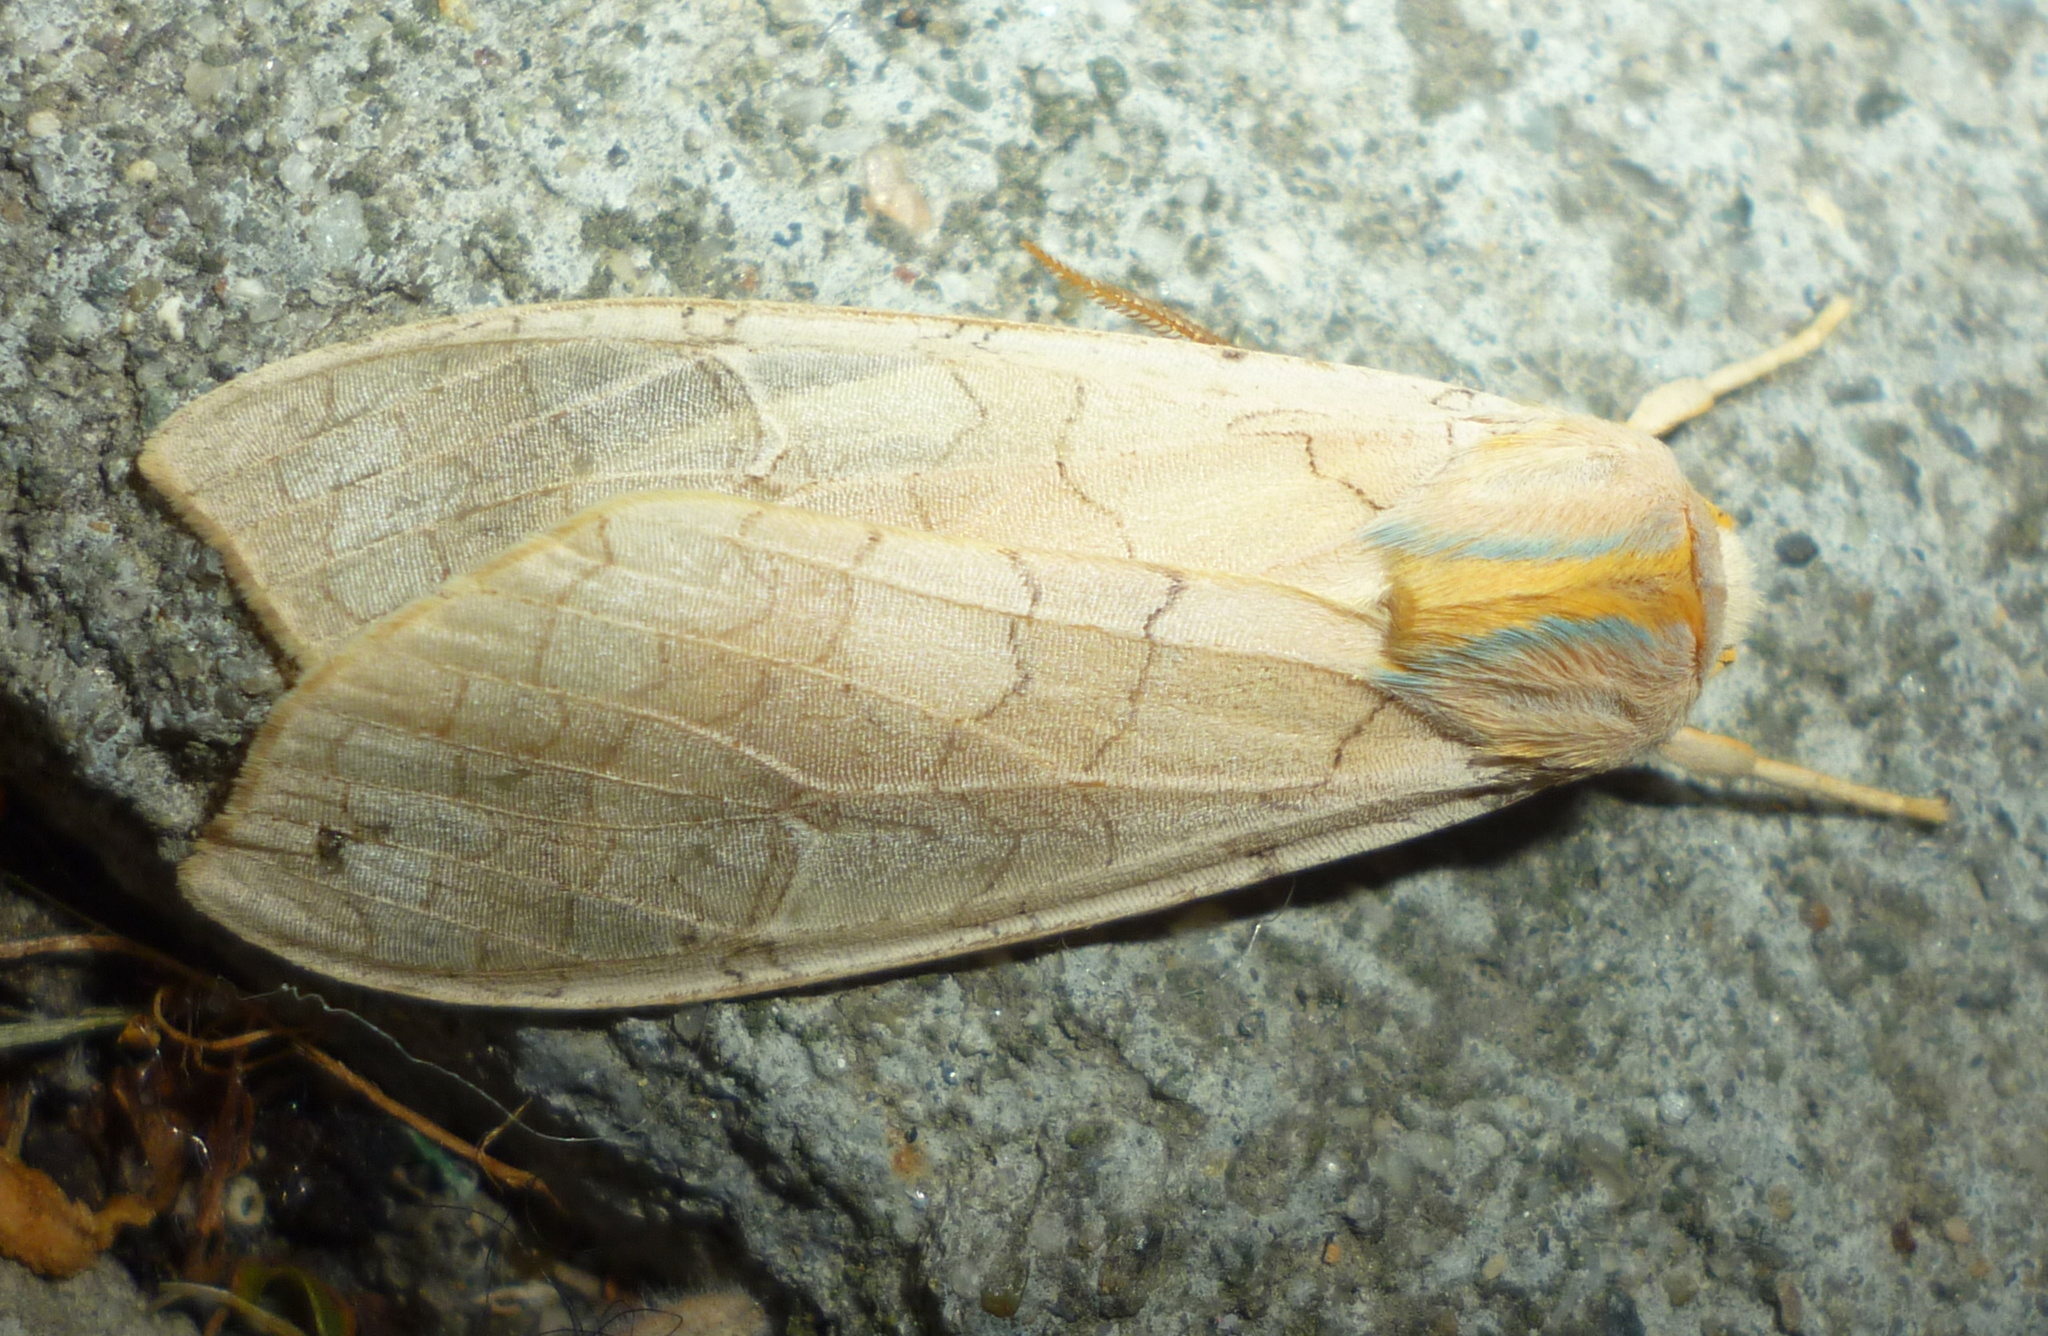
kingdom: Animalia
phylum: Arthropoda
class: Insecta
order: Lepidoptera
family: Erebidae
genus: Halysidota
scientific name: Halysidota tessellaris
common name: Banded tussock moth
